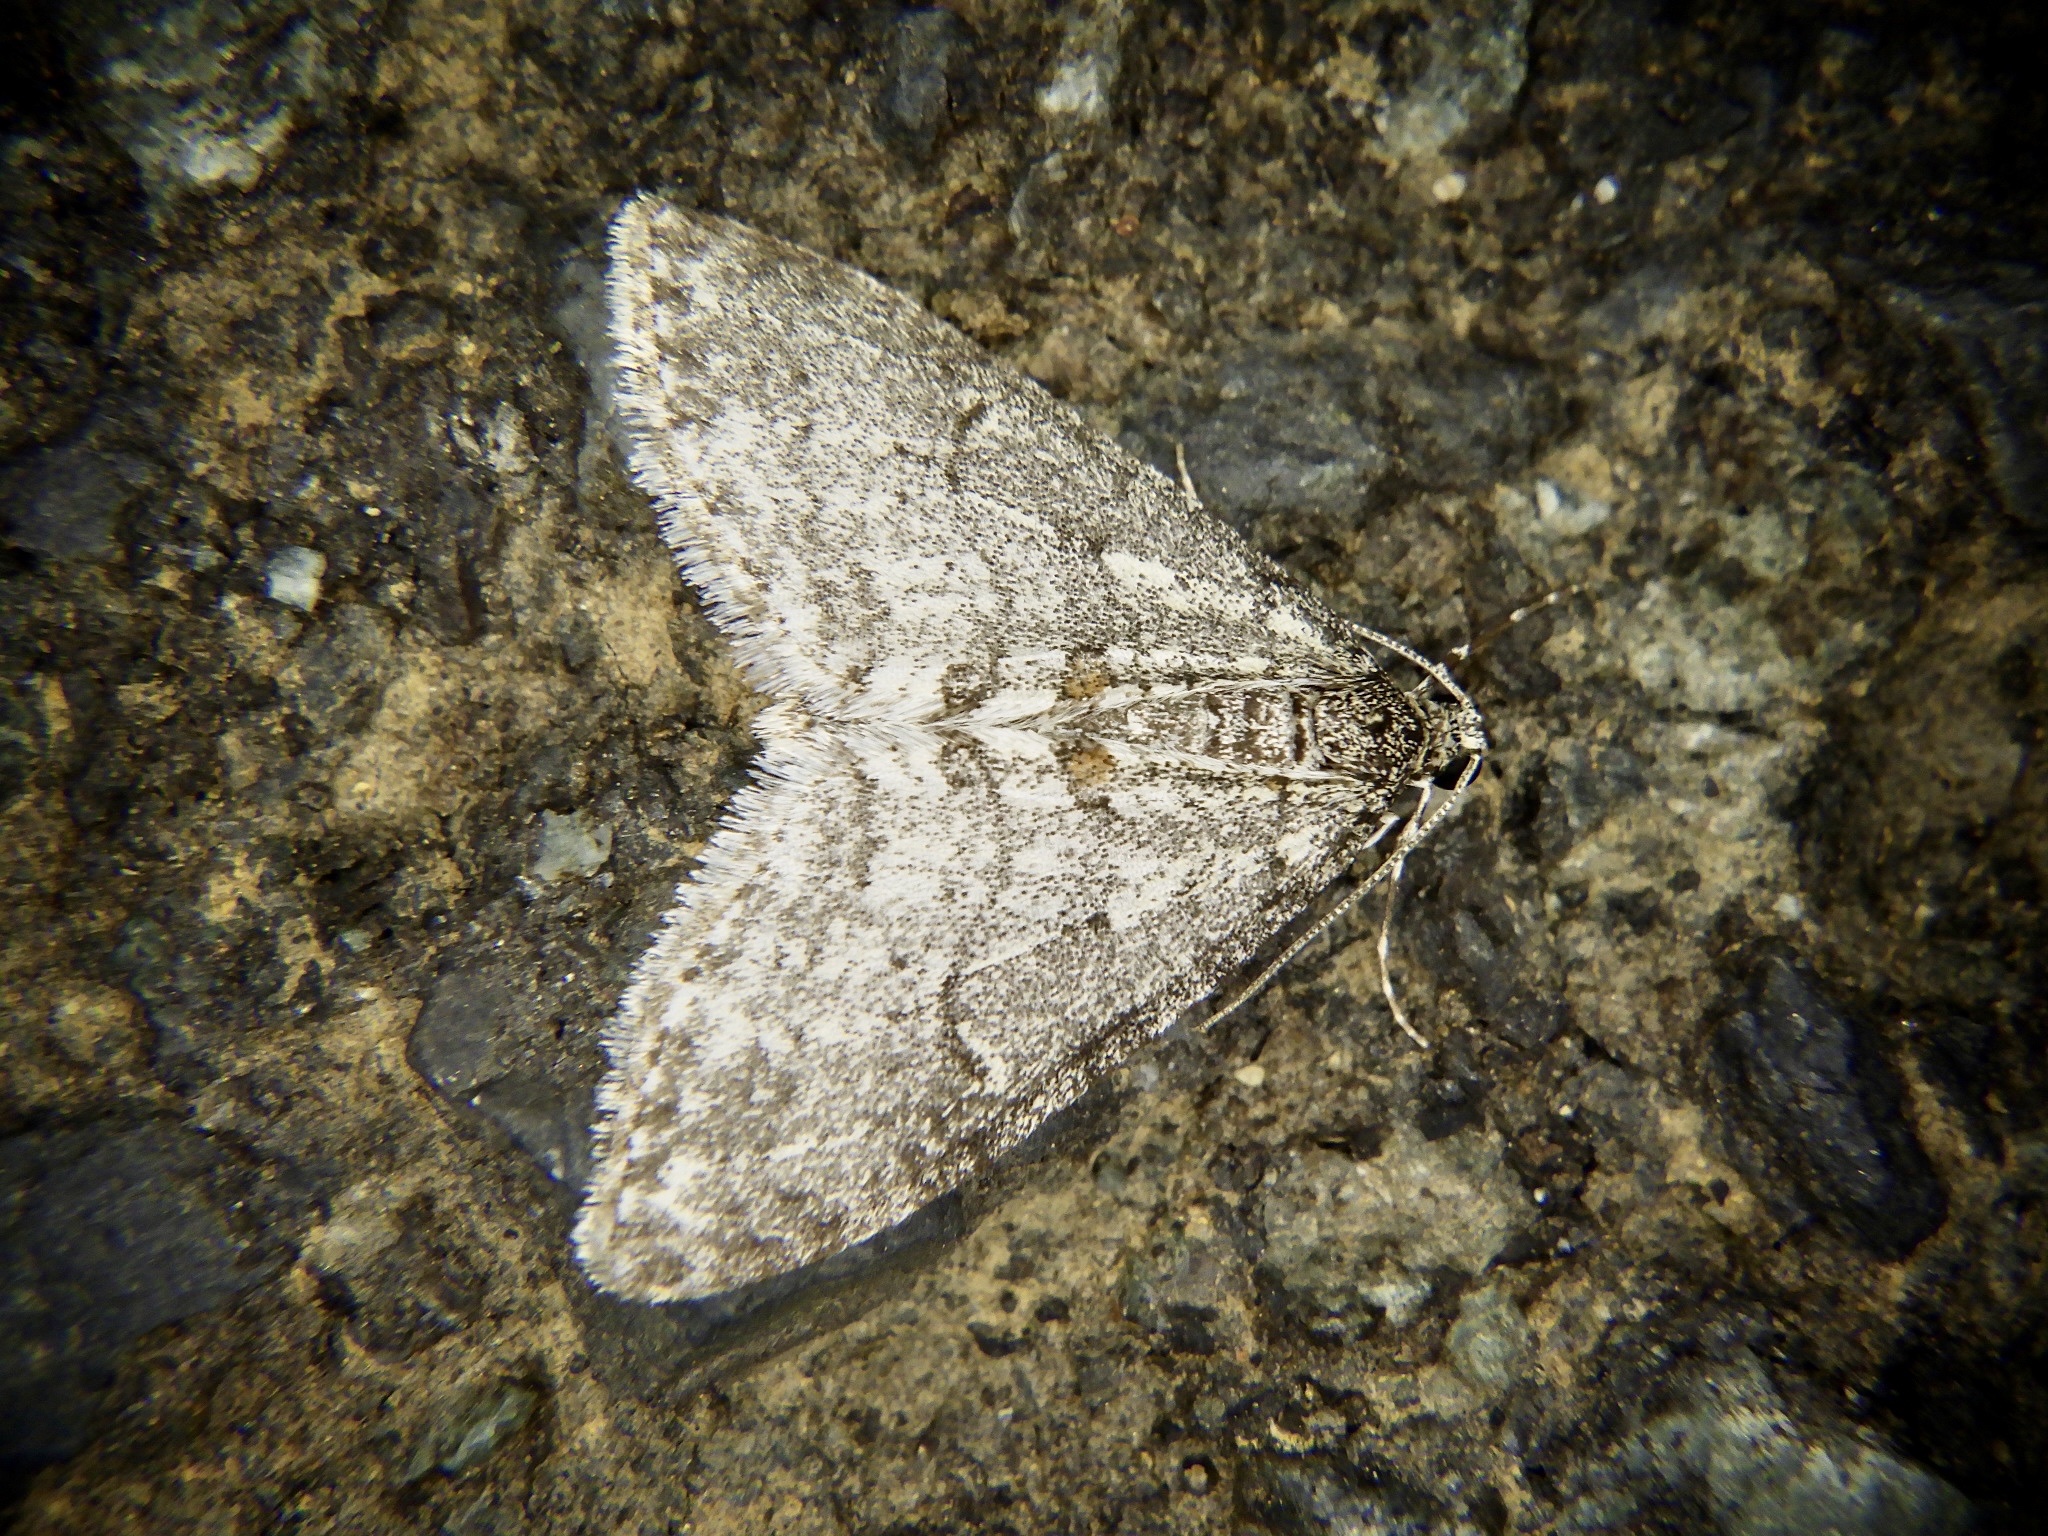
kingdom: Animalia
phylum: Arthropoda
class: Insecta
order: Lepidoptera
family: Geometridae
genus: Trichopteryx
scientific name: Trichopteryx hemana
